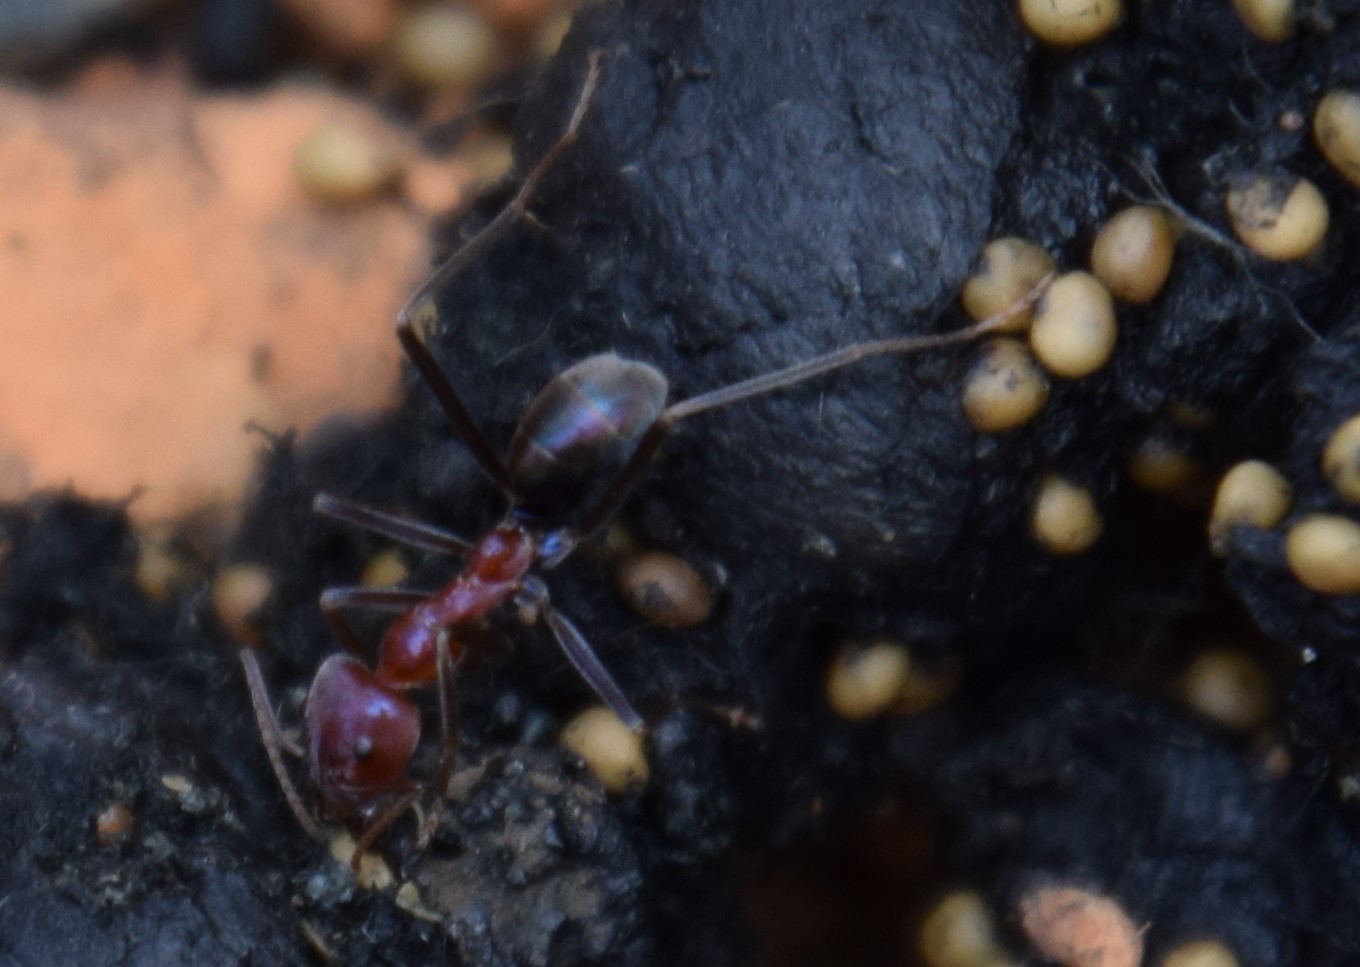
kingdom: Animalia
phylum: Arthropoda
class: Insecta
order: Hymenoptera
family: Formicidae
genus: Iridomyrmex
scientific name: Iridomyrmex purpureus
